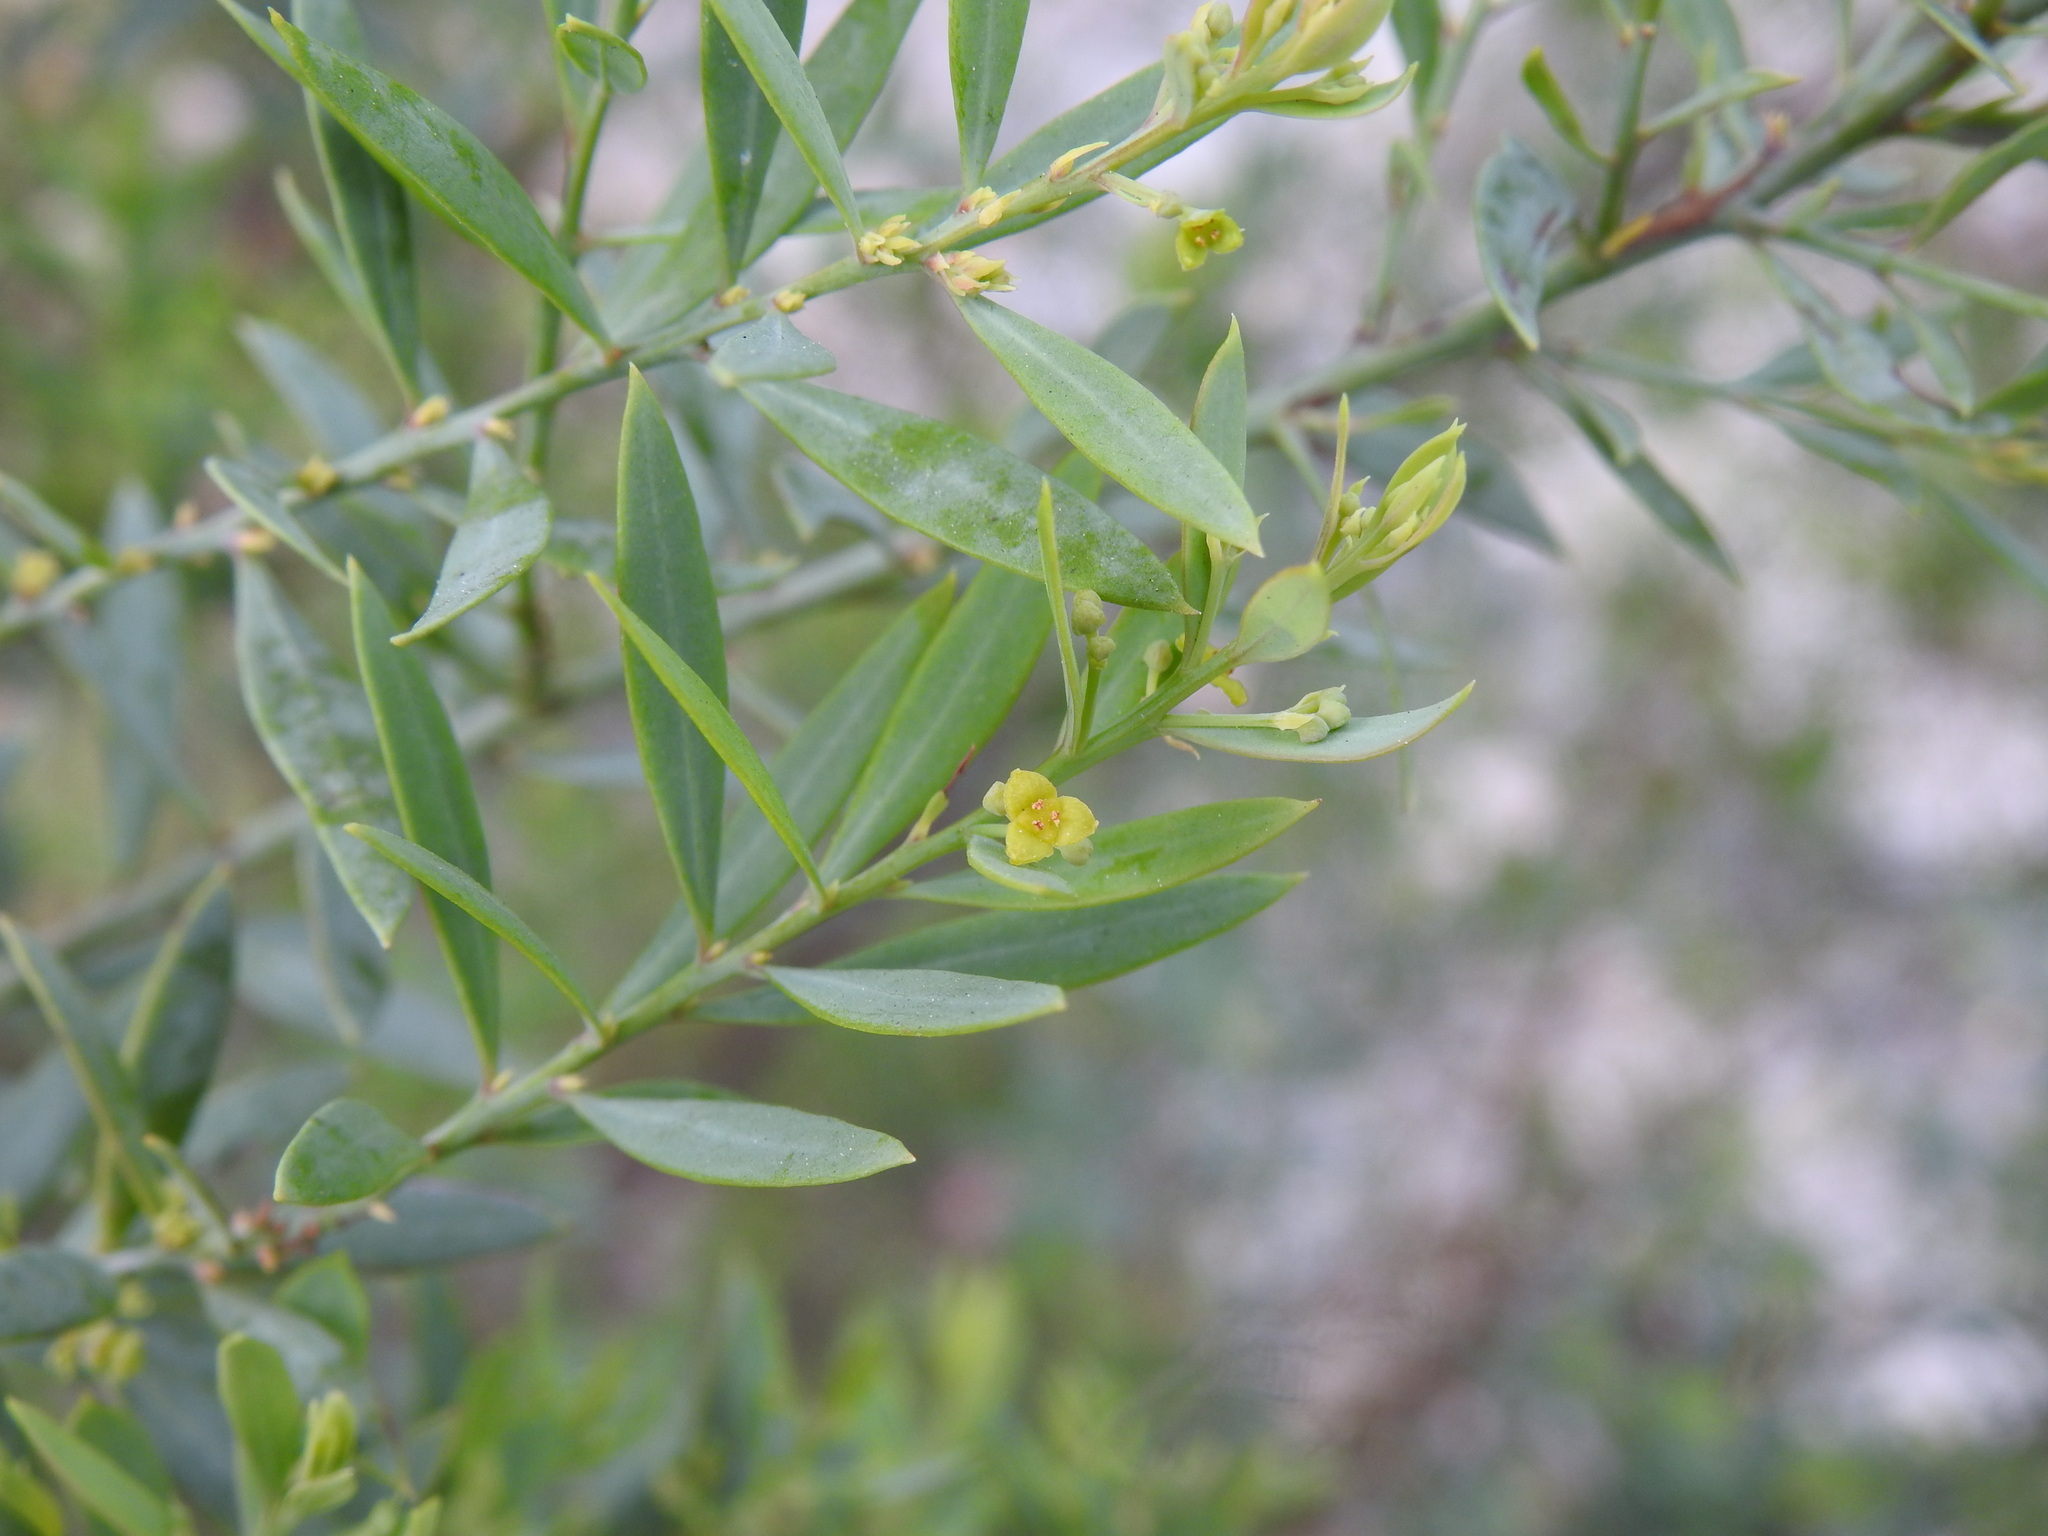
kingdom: Plantae
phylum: Tracheophyta
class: Magnoliopsida
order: Santalales
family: Santalaceae
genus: Osyris
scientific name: Osyris lanceolata
